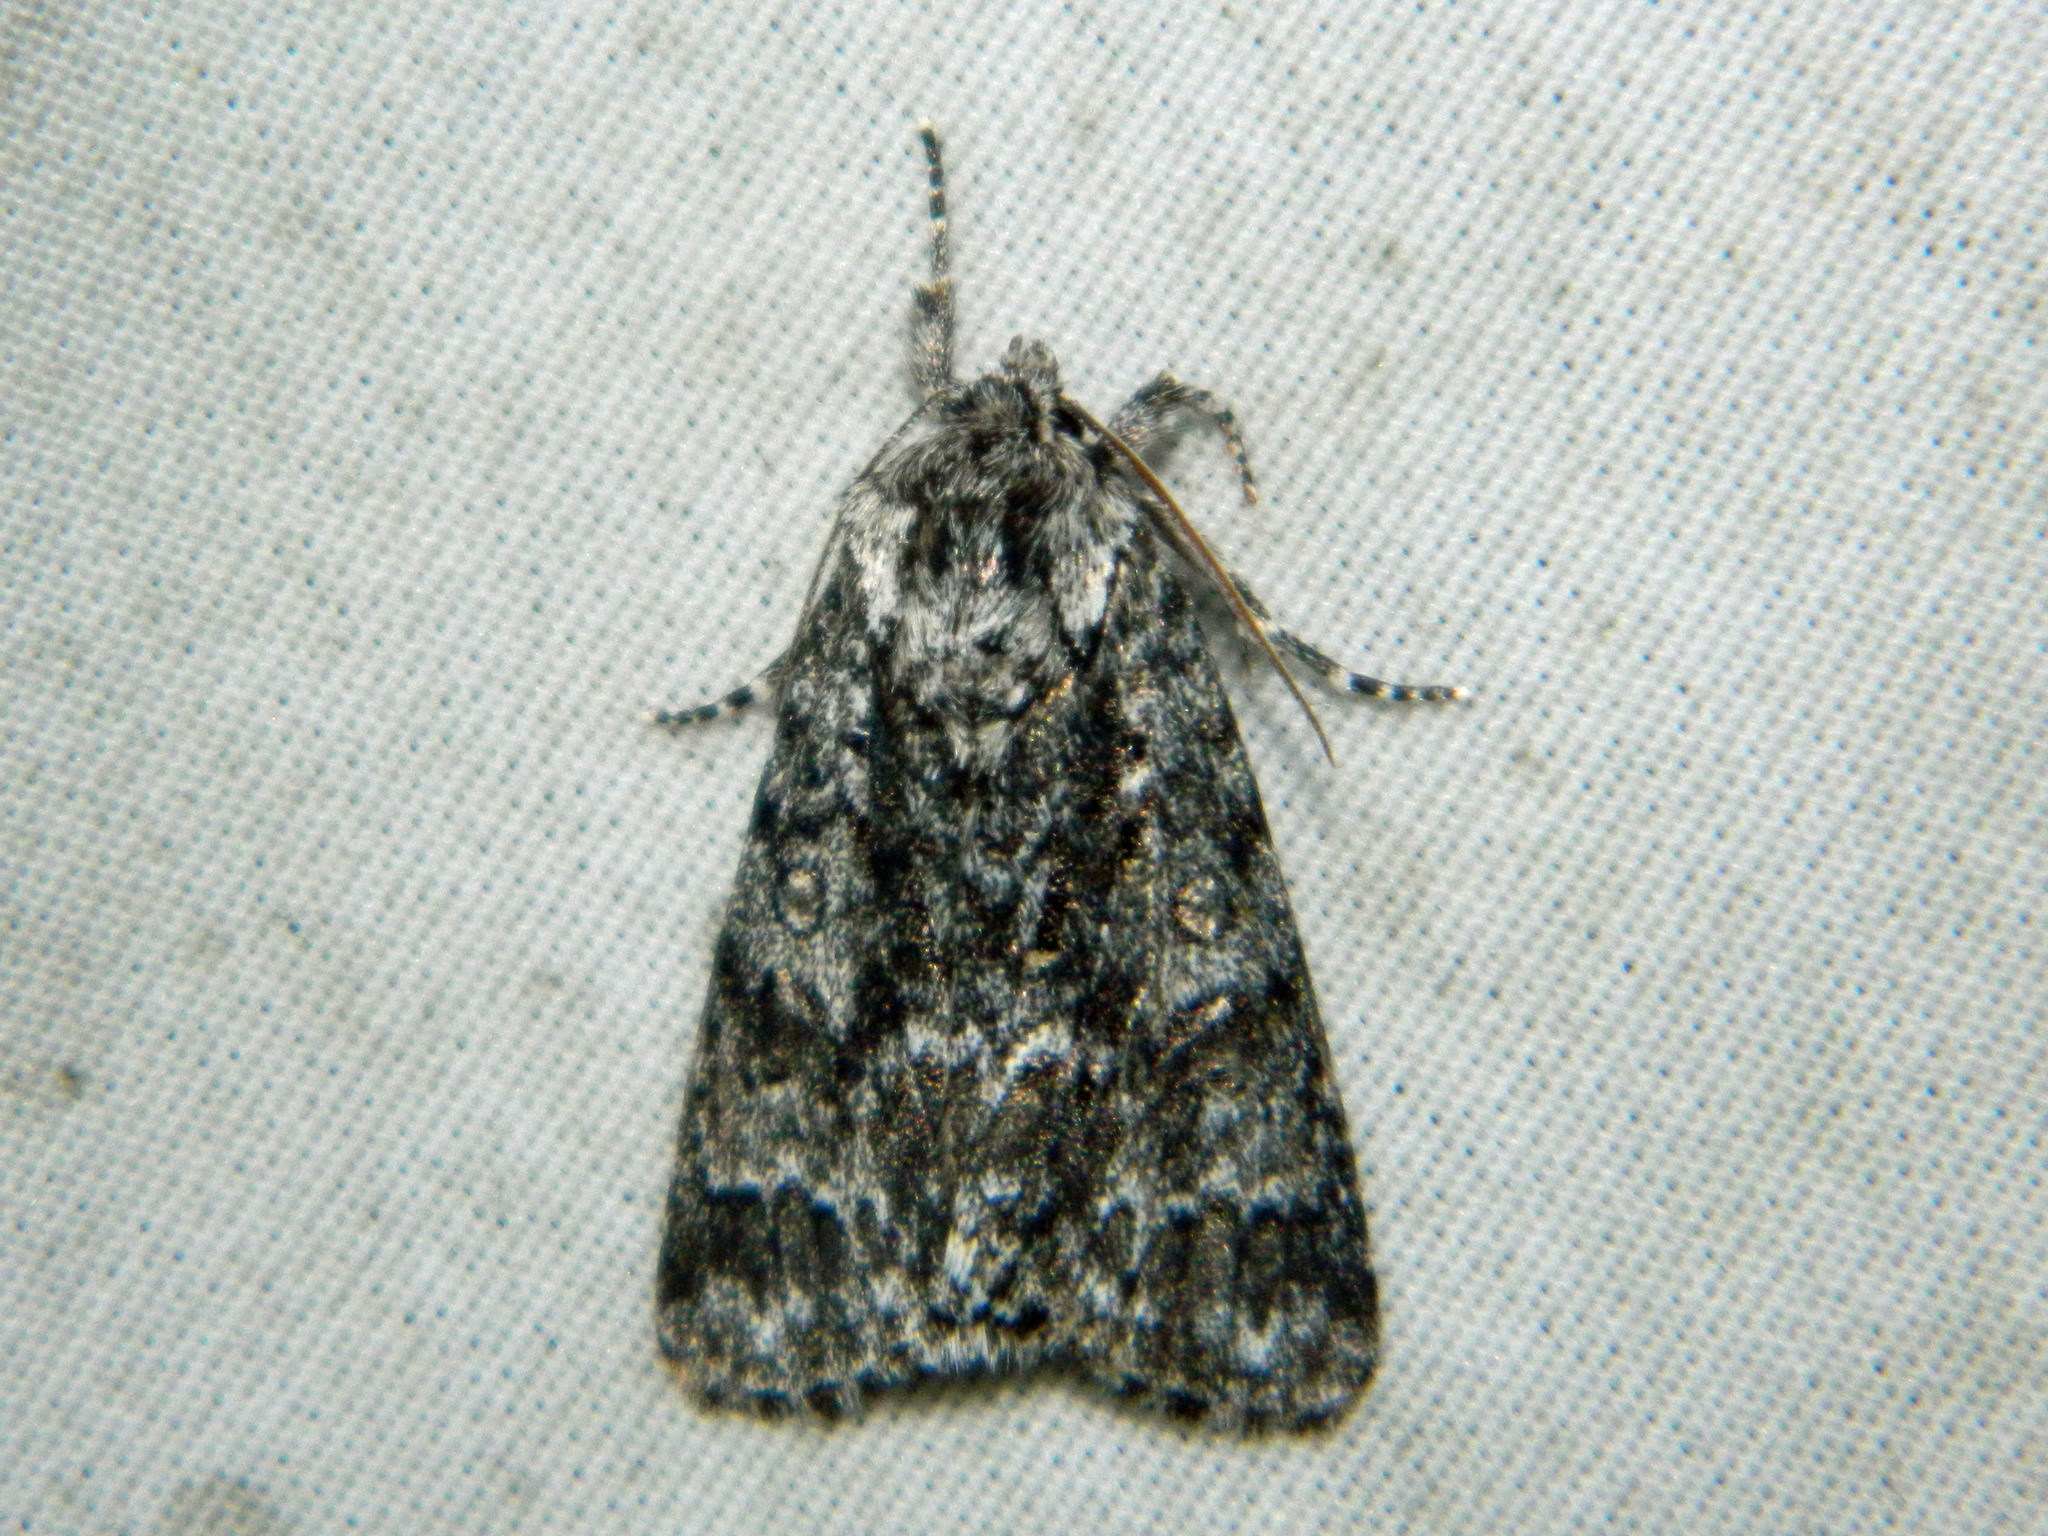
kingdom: Animalia
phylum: Arthropoda
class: Insecta
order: Lepidoptera
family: Noctuidae
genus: Acronicta
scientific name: Acronicta impressa
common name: Impressed dagger
